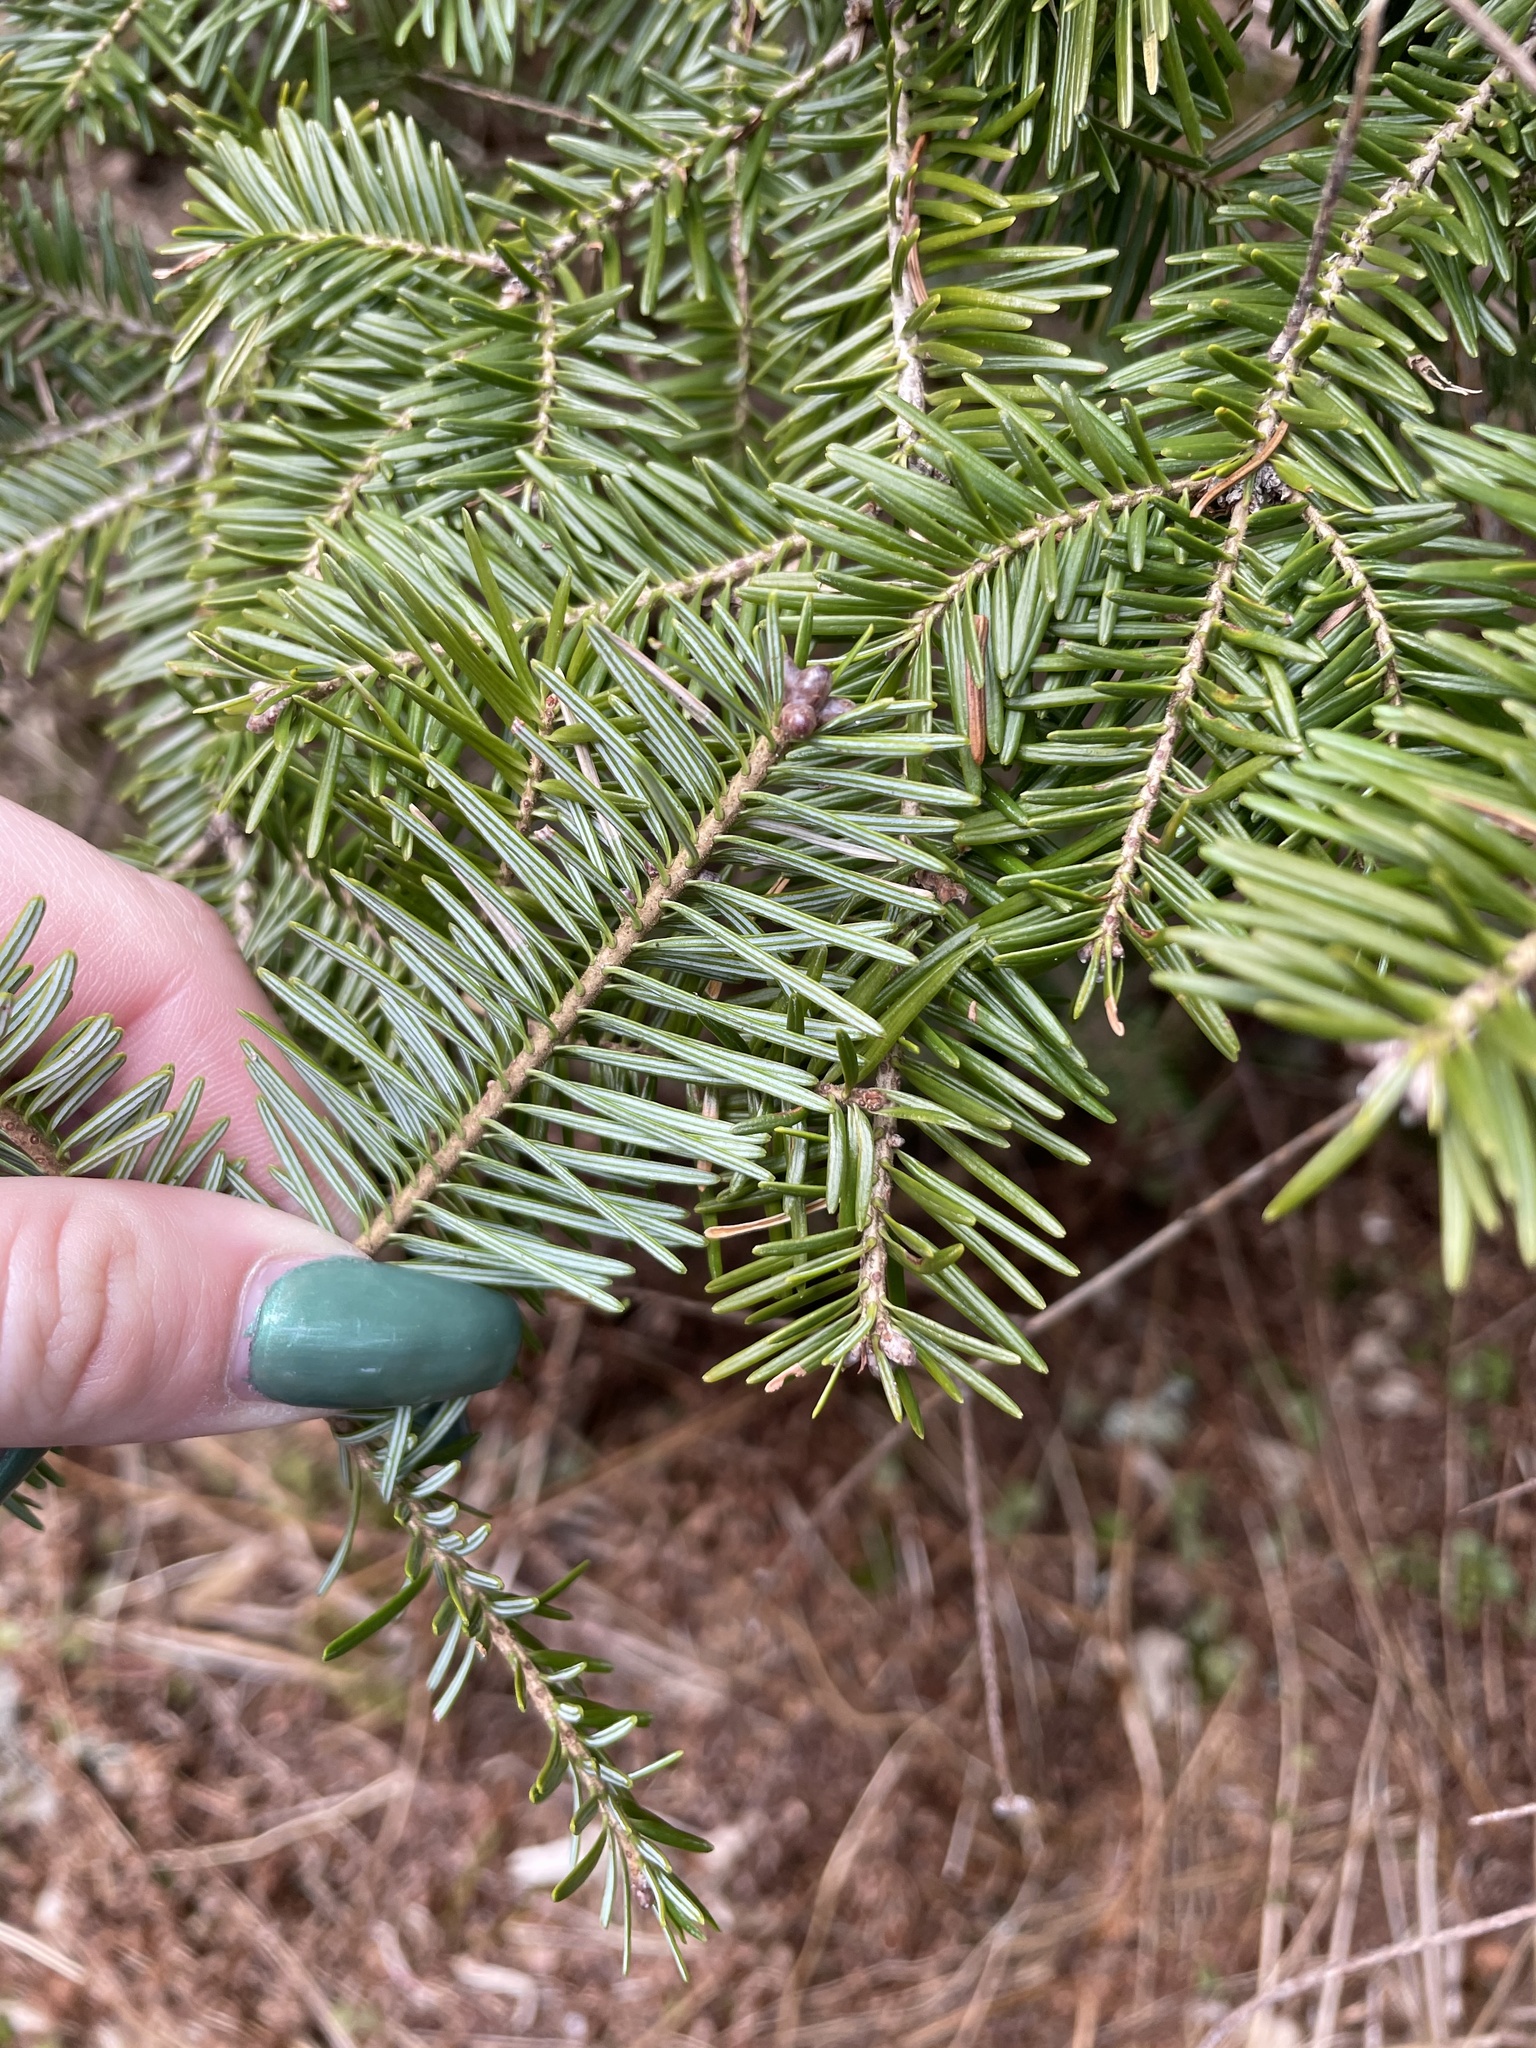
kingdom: Plantae
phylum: Tracheophyta
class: Pinopsida
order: Pinales
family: Pinaceae
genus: Abies
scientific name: Abies balsamea
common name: Balsam fir
